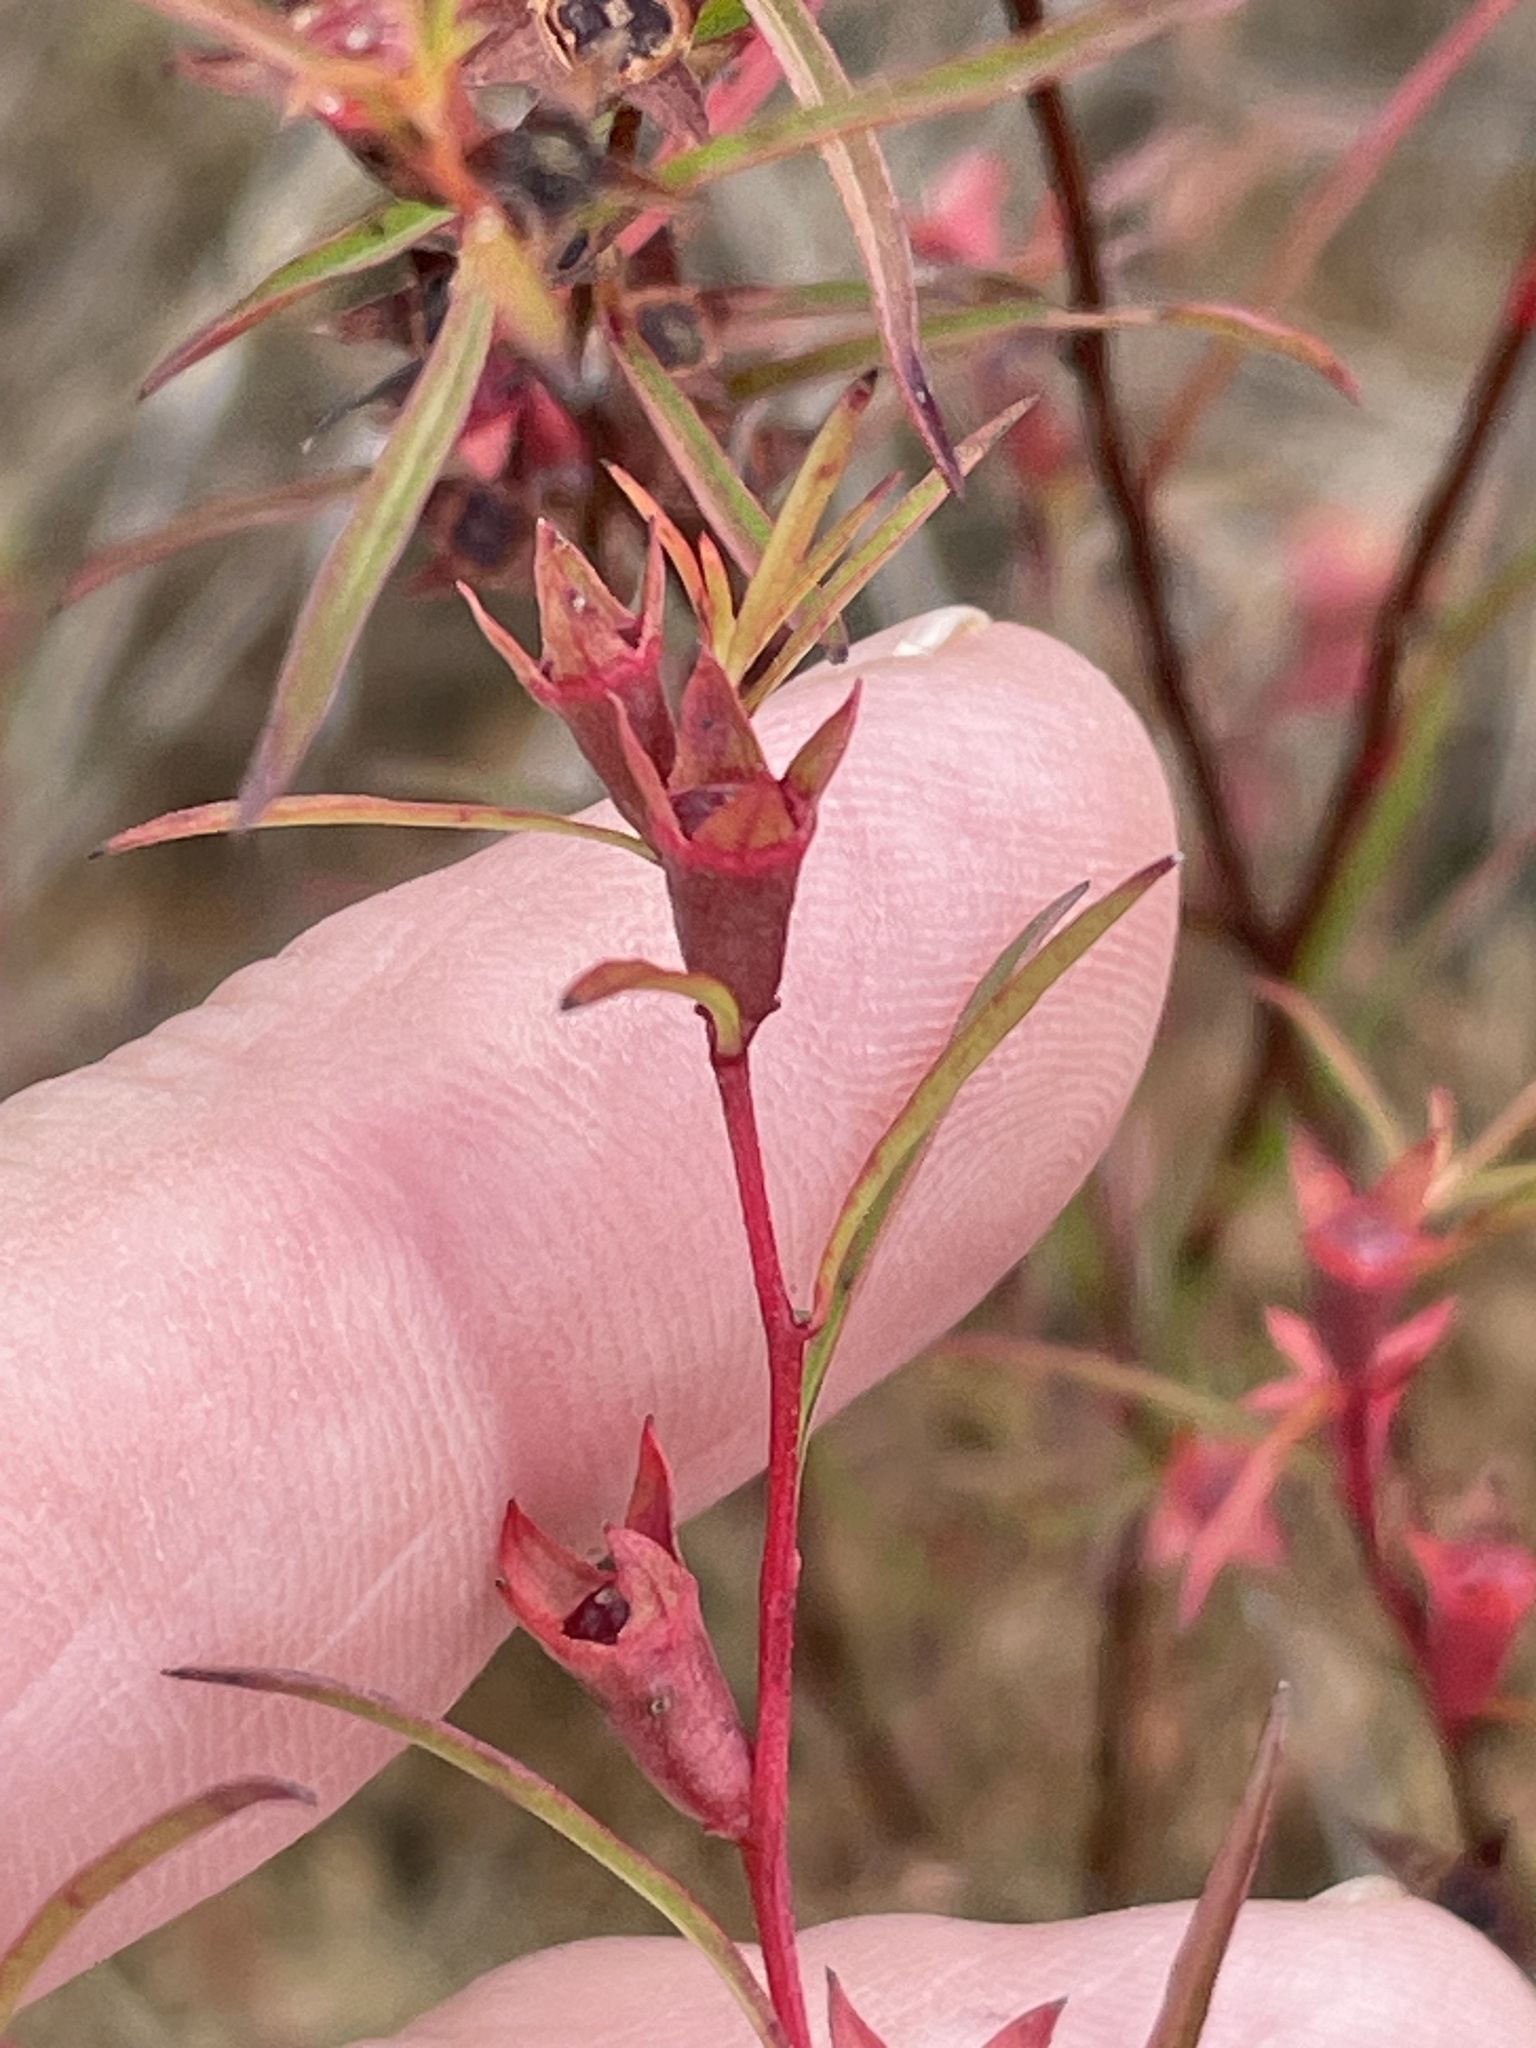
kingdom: Plantae
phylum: Tracheophyta
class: Magnoliopsida
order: Myrtales
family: Onagraceae
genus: Ludwigia
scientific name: Ludwigia linearis
